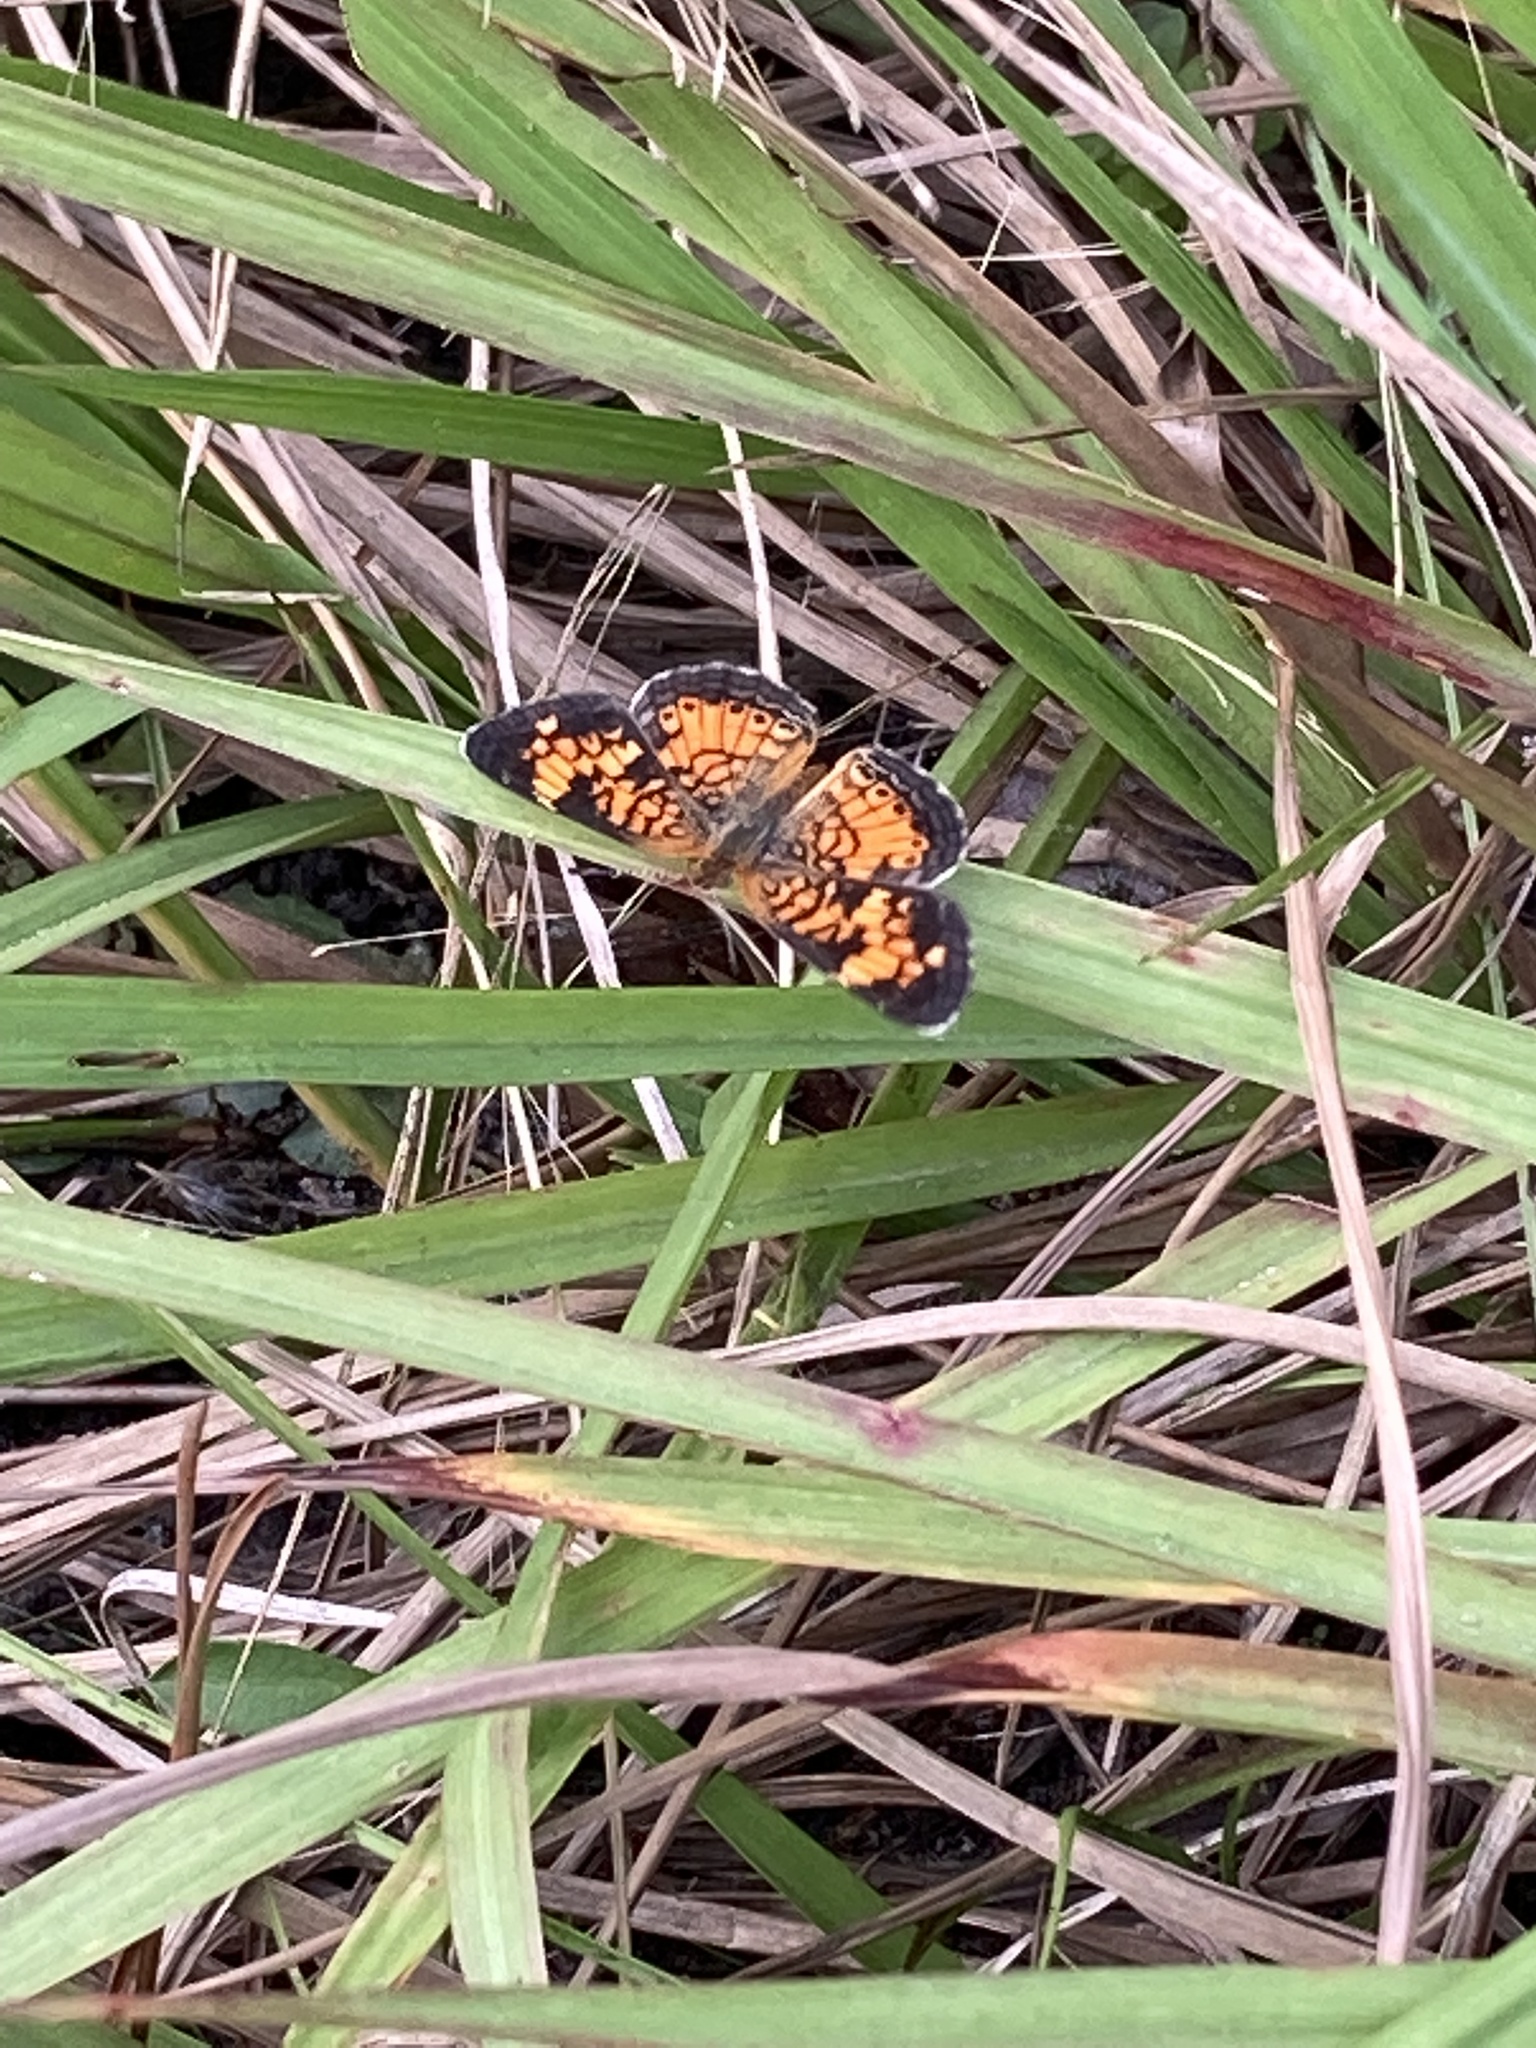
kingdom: Animalia
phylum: Arthropoda
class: Insecta
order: Lepidoptera
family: Nymphalidae
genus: Phyciodes
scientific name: Phyciodes tharos
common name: Pearl crescent
